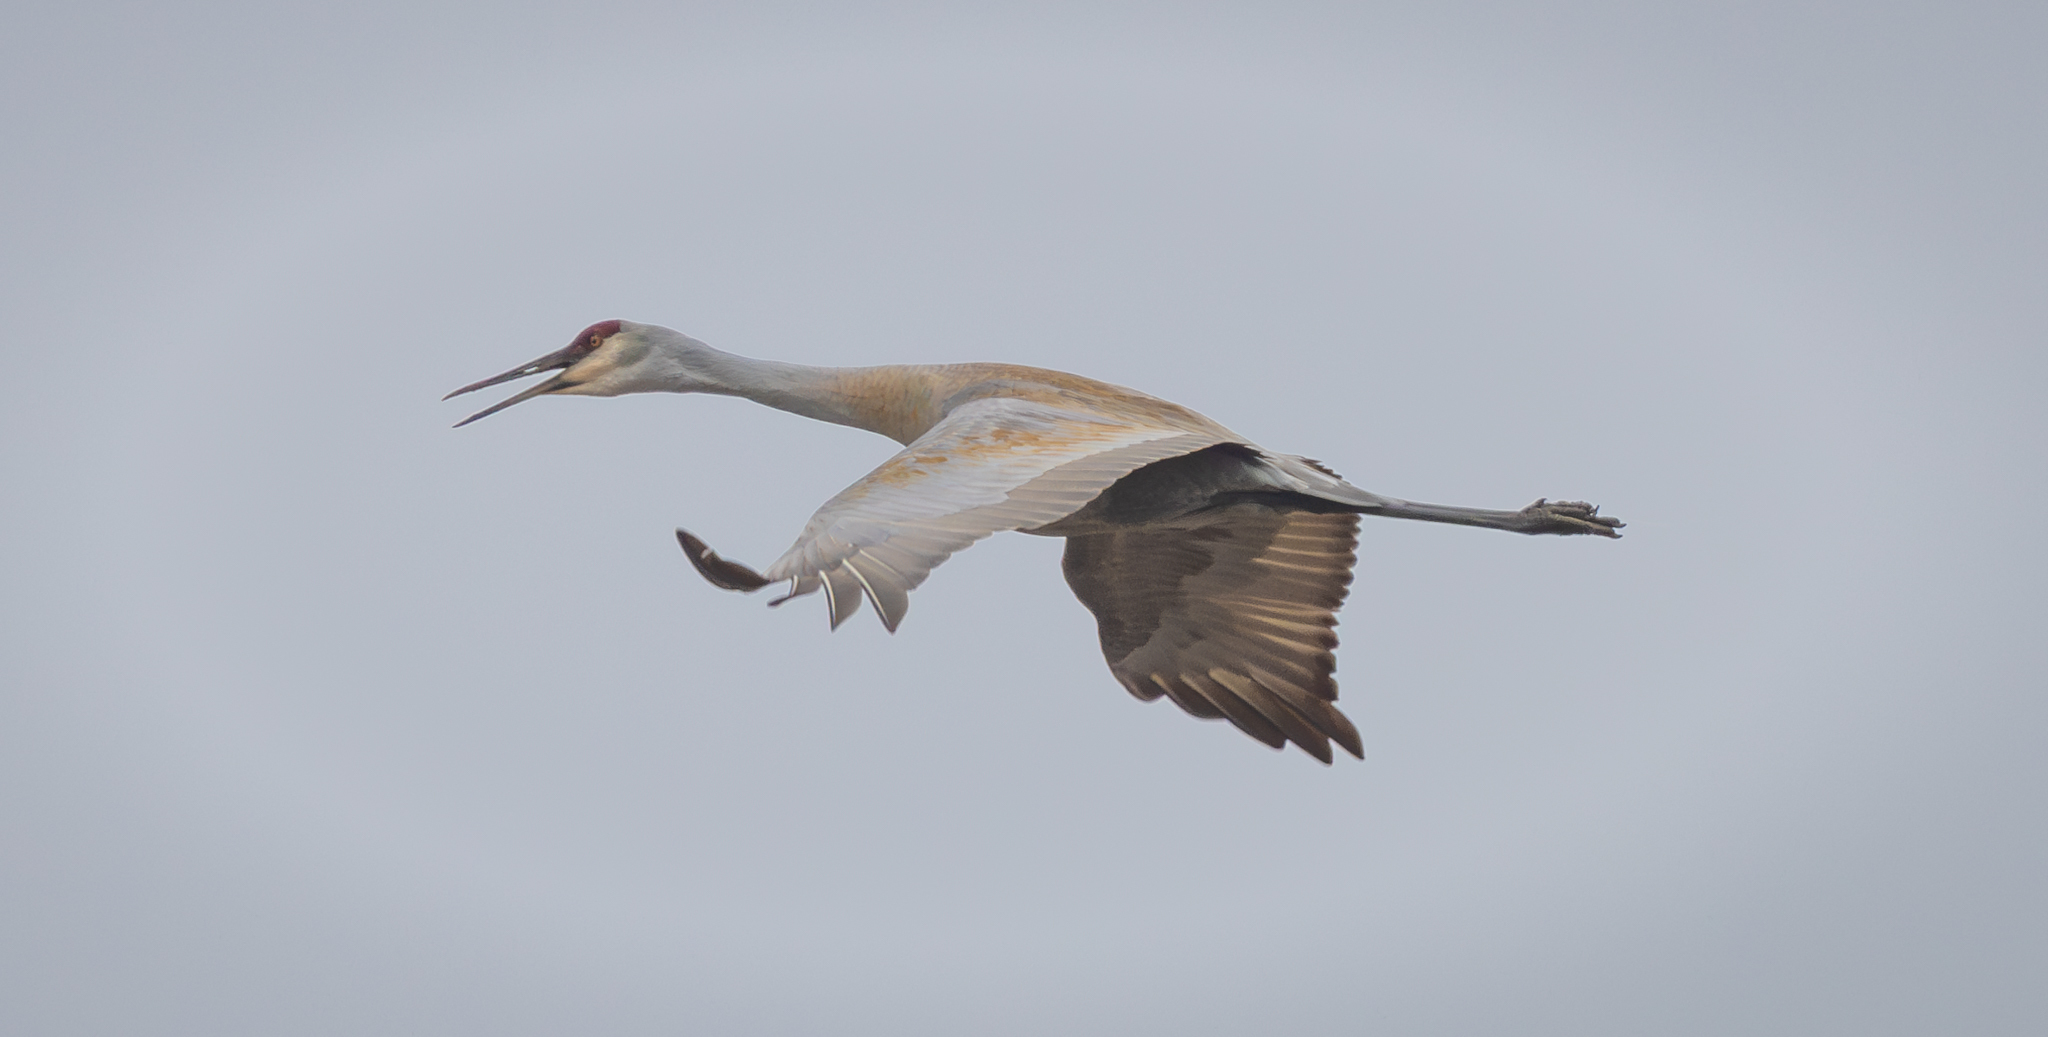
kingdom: Animalia
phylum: Chordata
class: Aves
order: Gruiformes
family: Gruidae
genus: Grus
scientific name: Grus canadensis
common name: Sandhill crane
